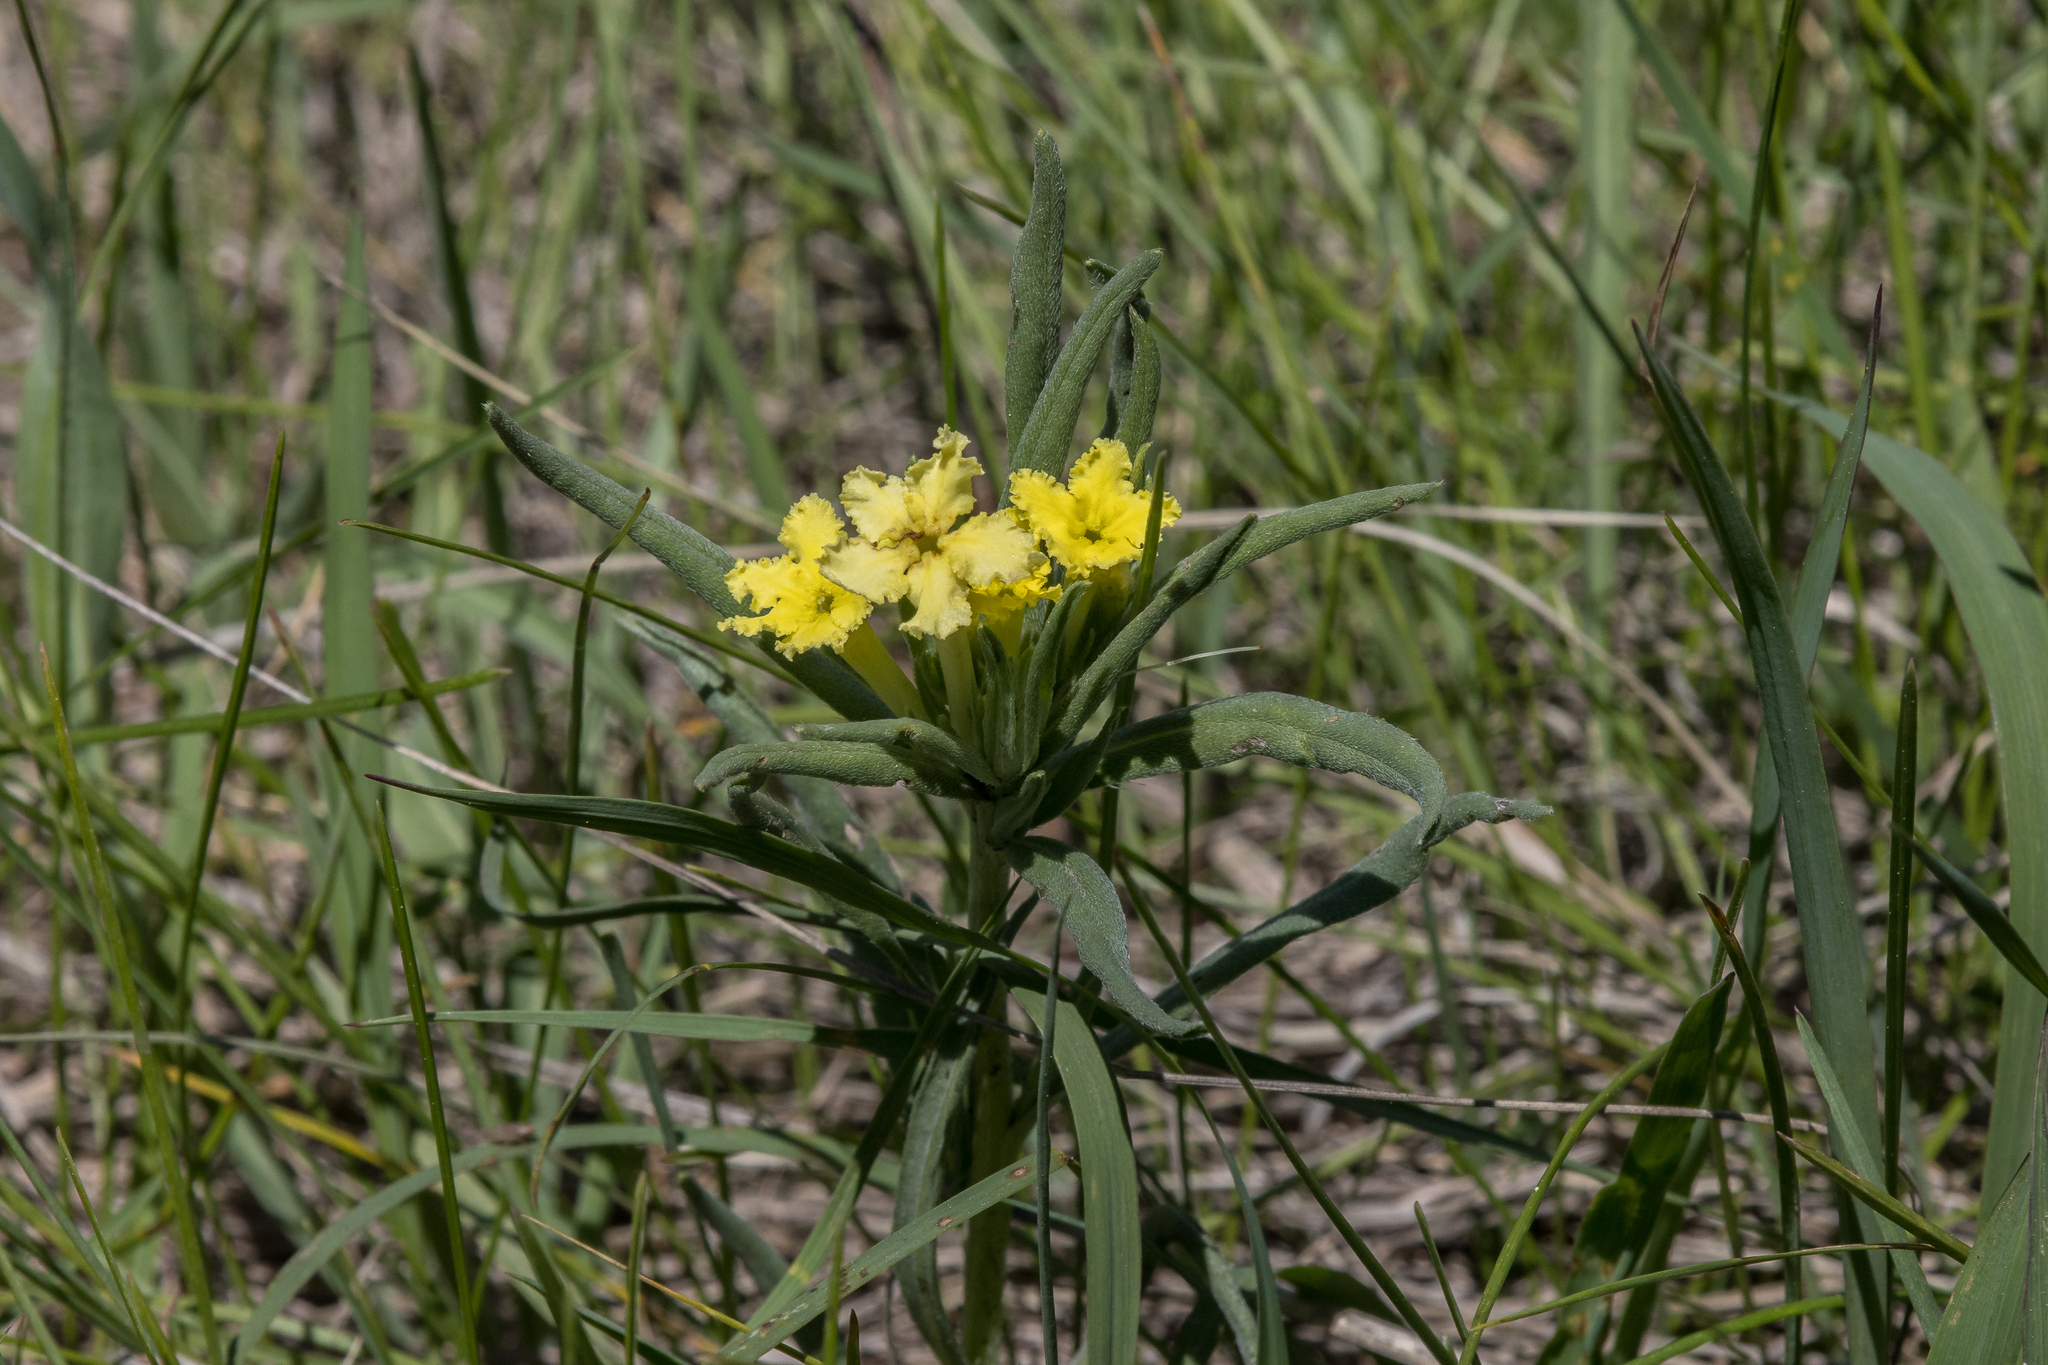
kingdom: Plantae
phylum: Tracheophyta
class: Magnoliopsida
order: Boraginales
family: Boraginaceae
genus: Lithospermum
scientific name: Lithospermum incisum
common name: Fringed gromwell
